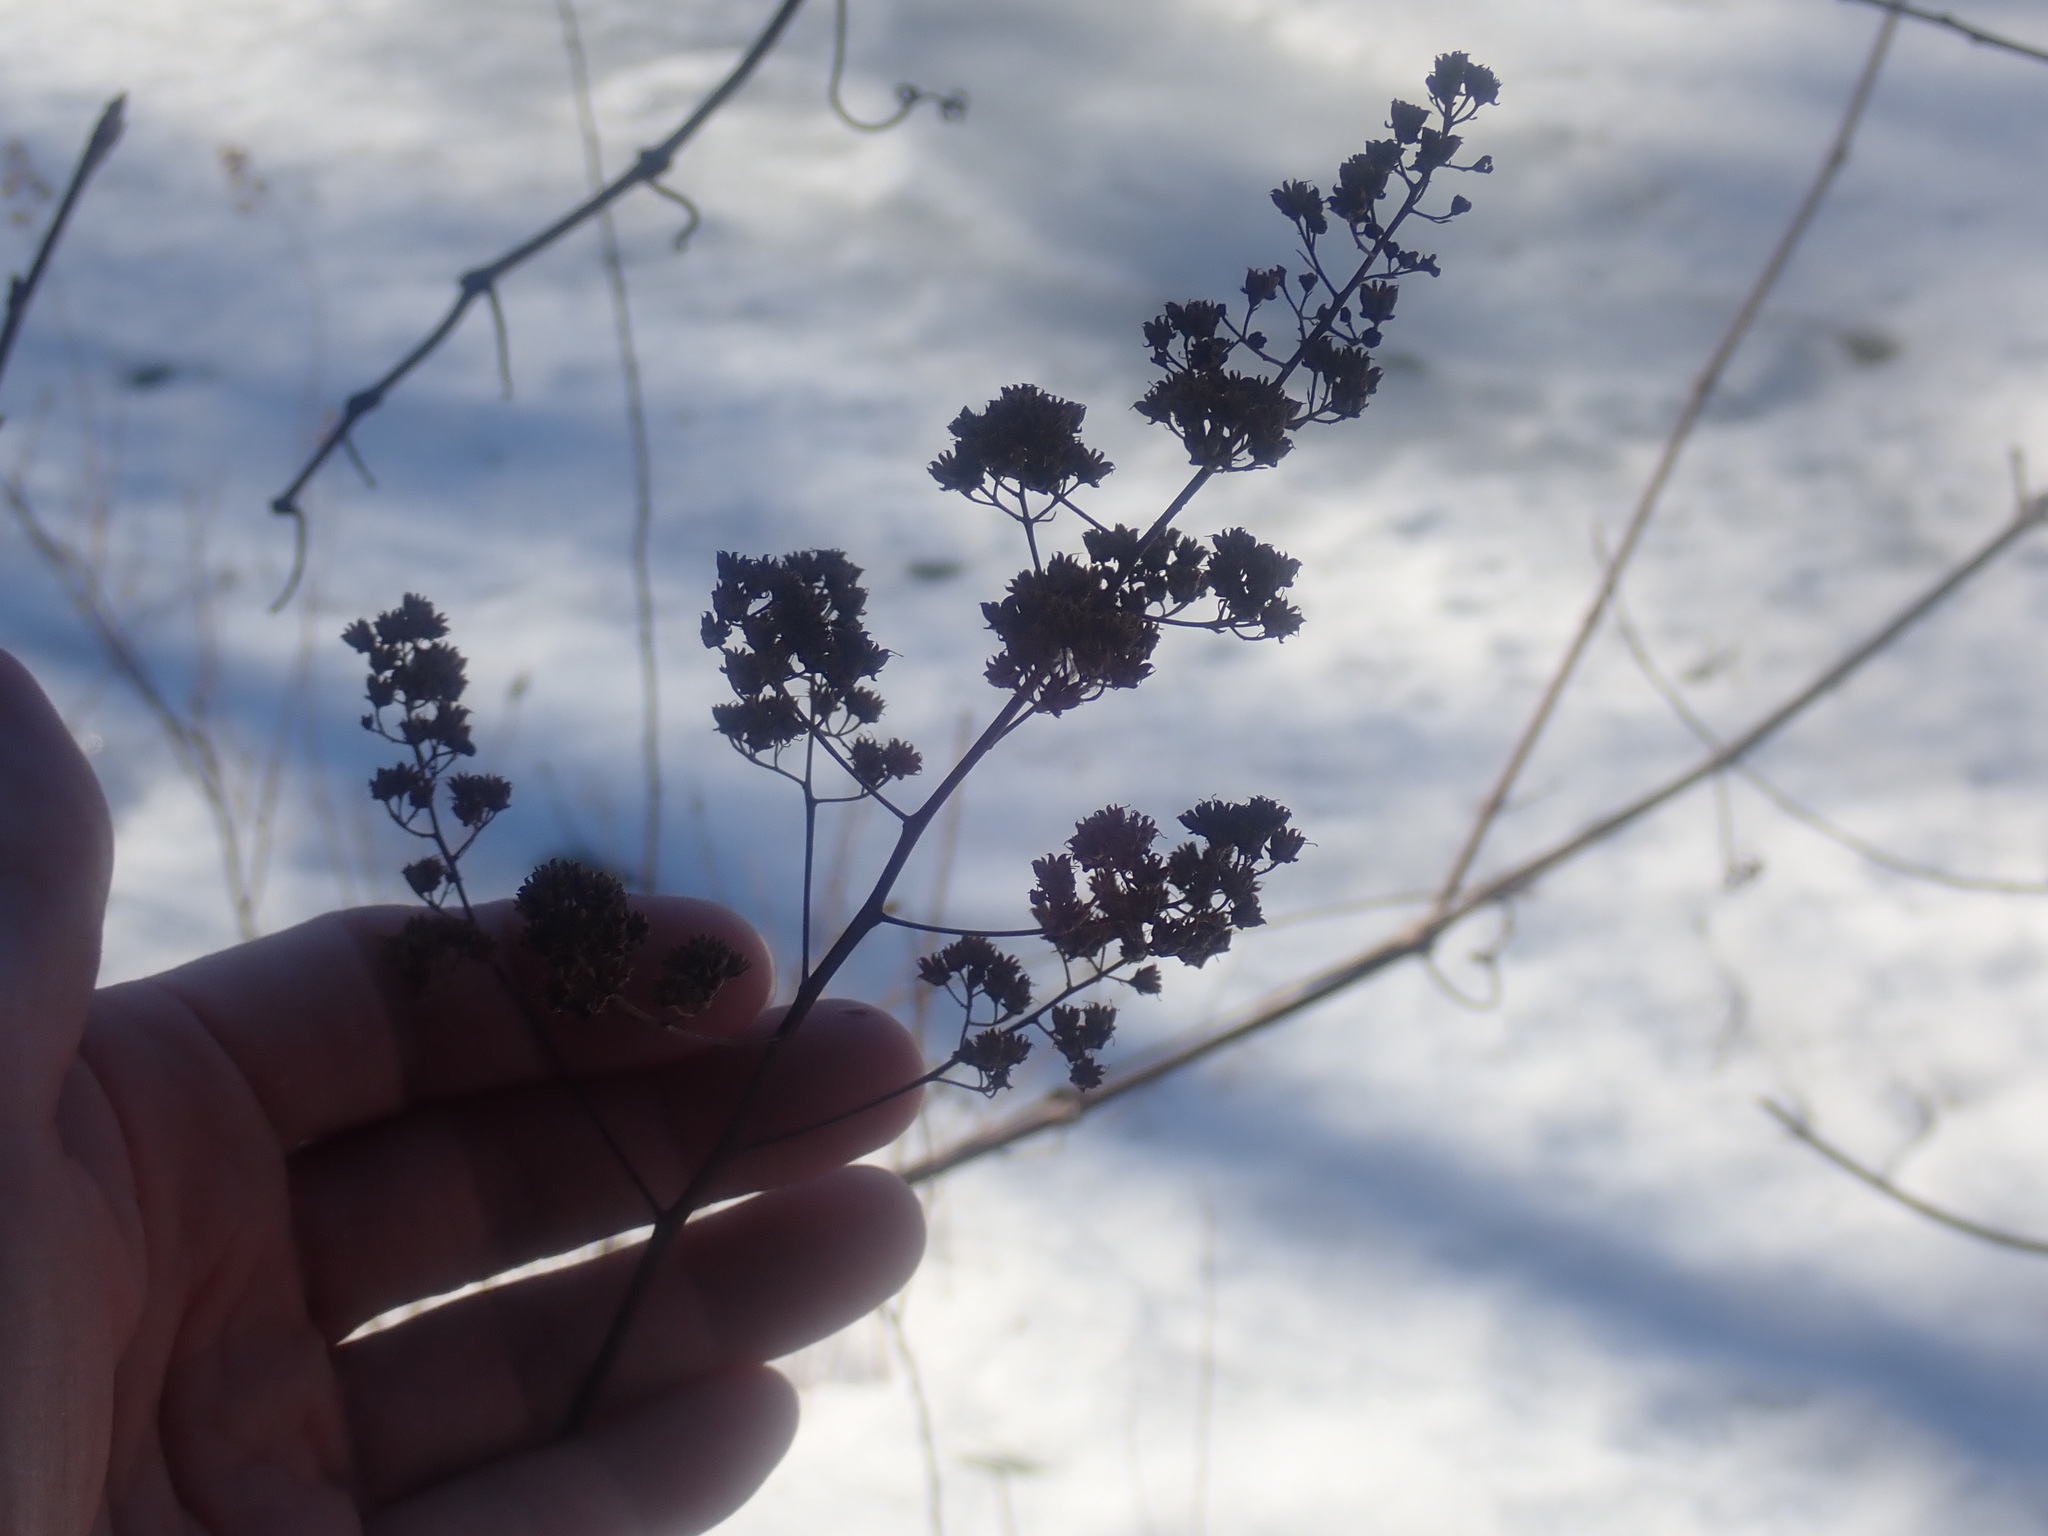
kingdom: Plantae
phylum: Tracheophyta
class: Magnoliopsida
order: Rosales
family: Rosaceae
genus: Spiraea
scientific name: Spiraea alba
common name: Pale bridewort
